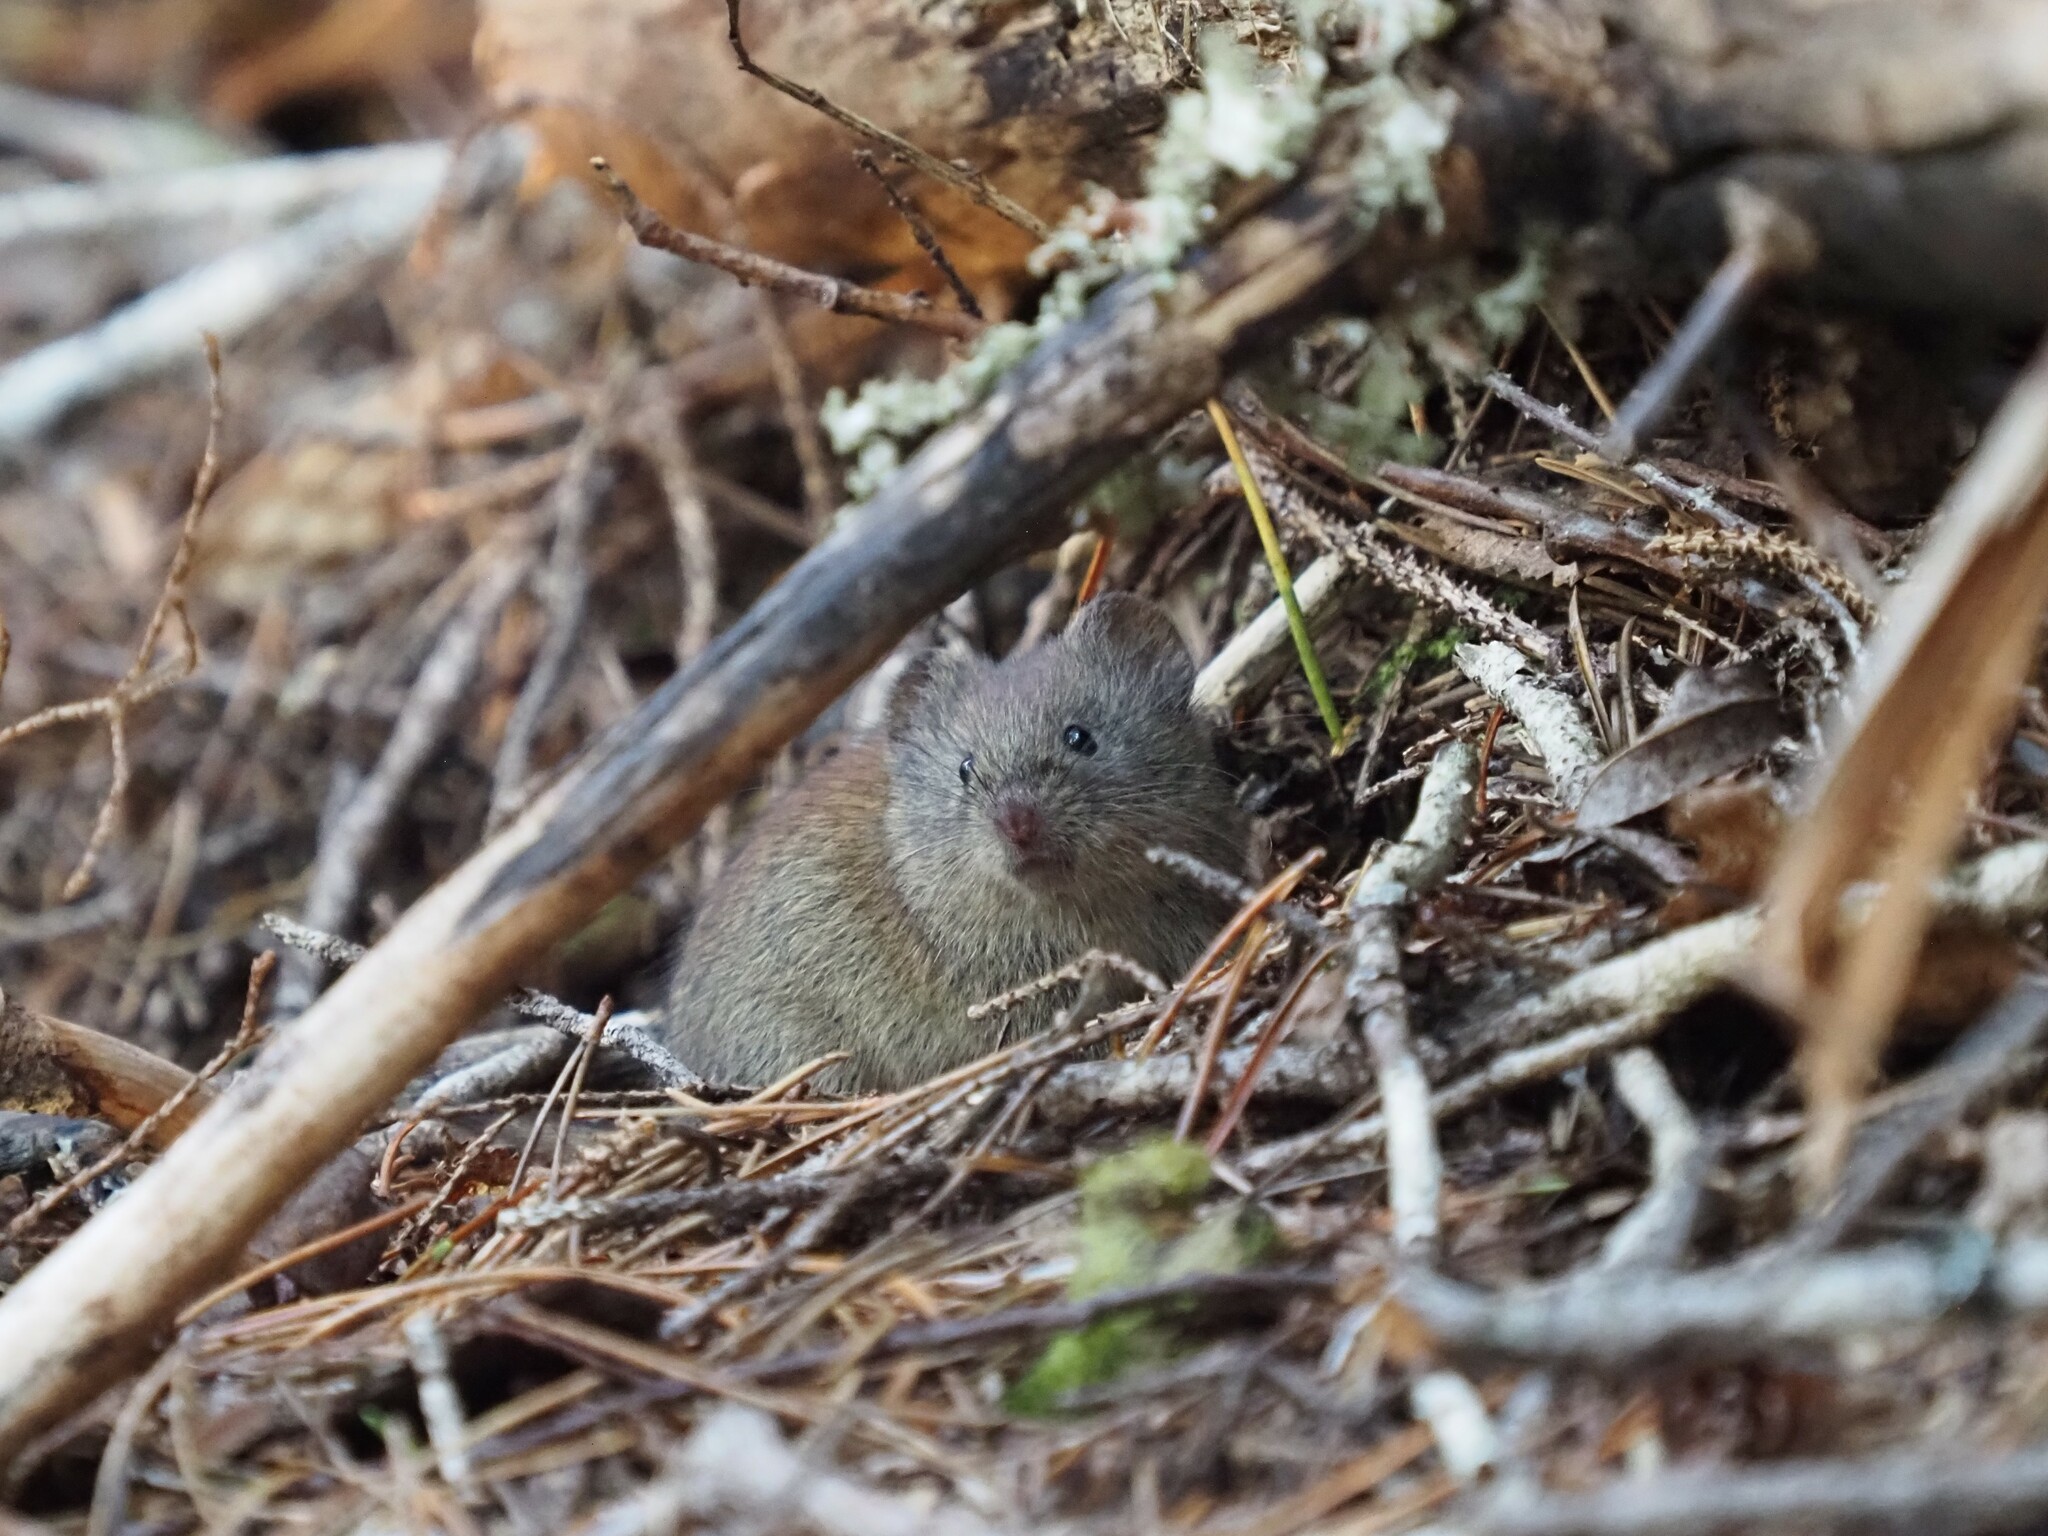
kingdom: Animalia
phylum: Chordata
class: Mammalia
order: Rodentia
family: Cricetidae
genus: Myodes
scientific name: Myodes rutilus
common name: Northern red-backed vole
